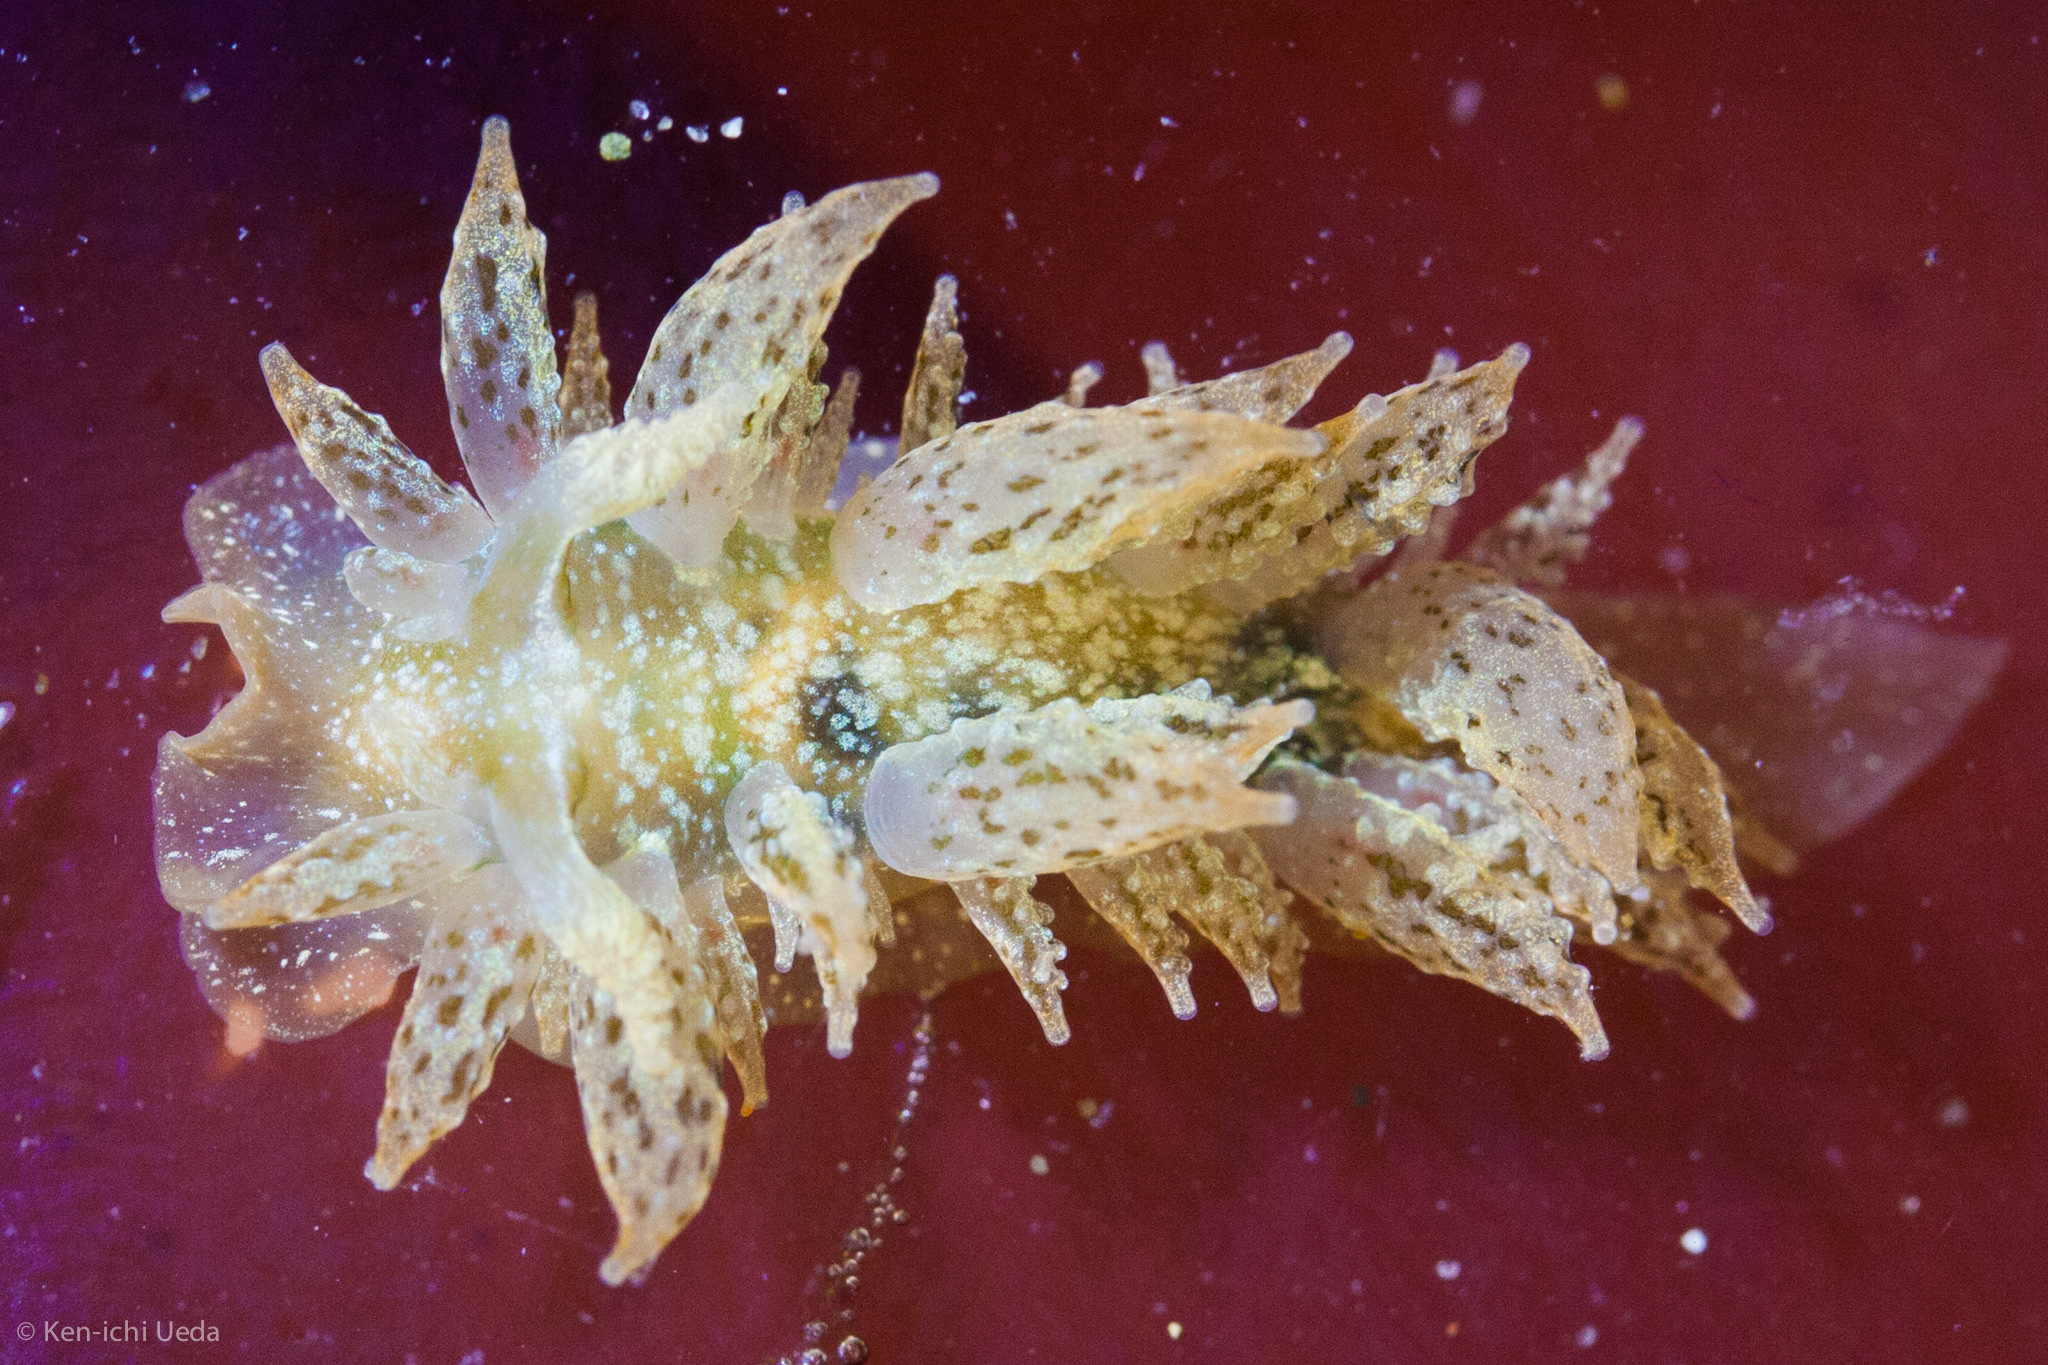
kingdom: Animalia
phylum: Mollusca
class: Gastropoda
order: Nudibranchia
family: Dironidae
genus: Dirona
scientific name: Dirona picta
